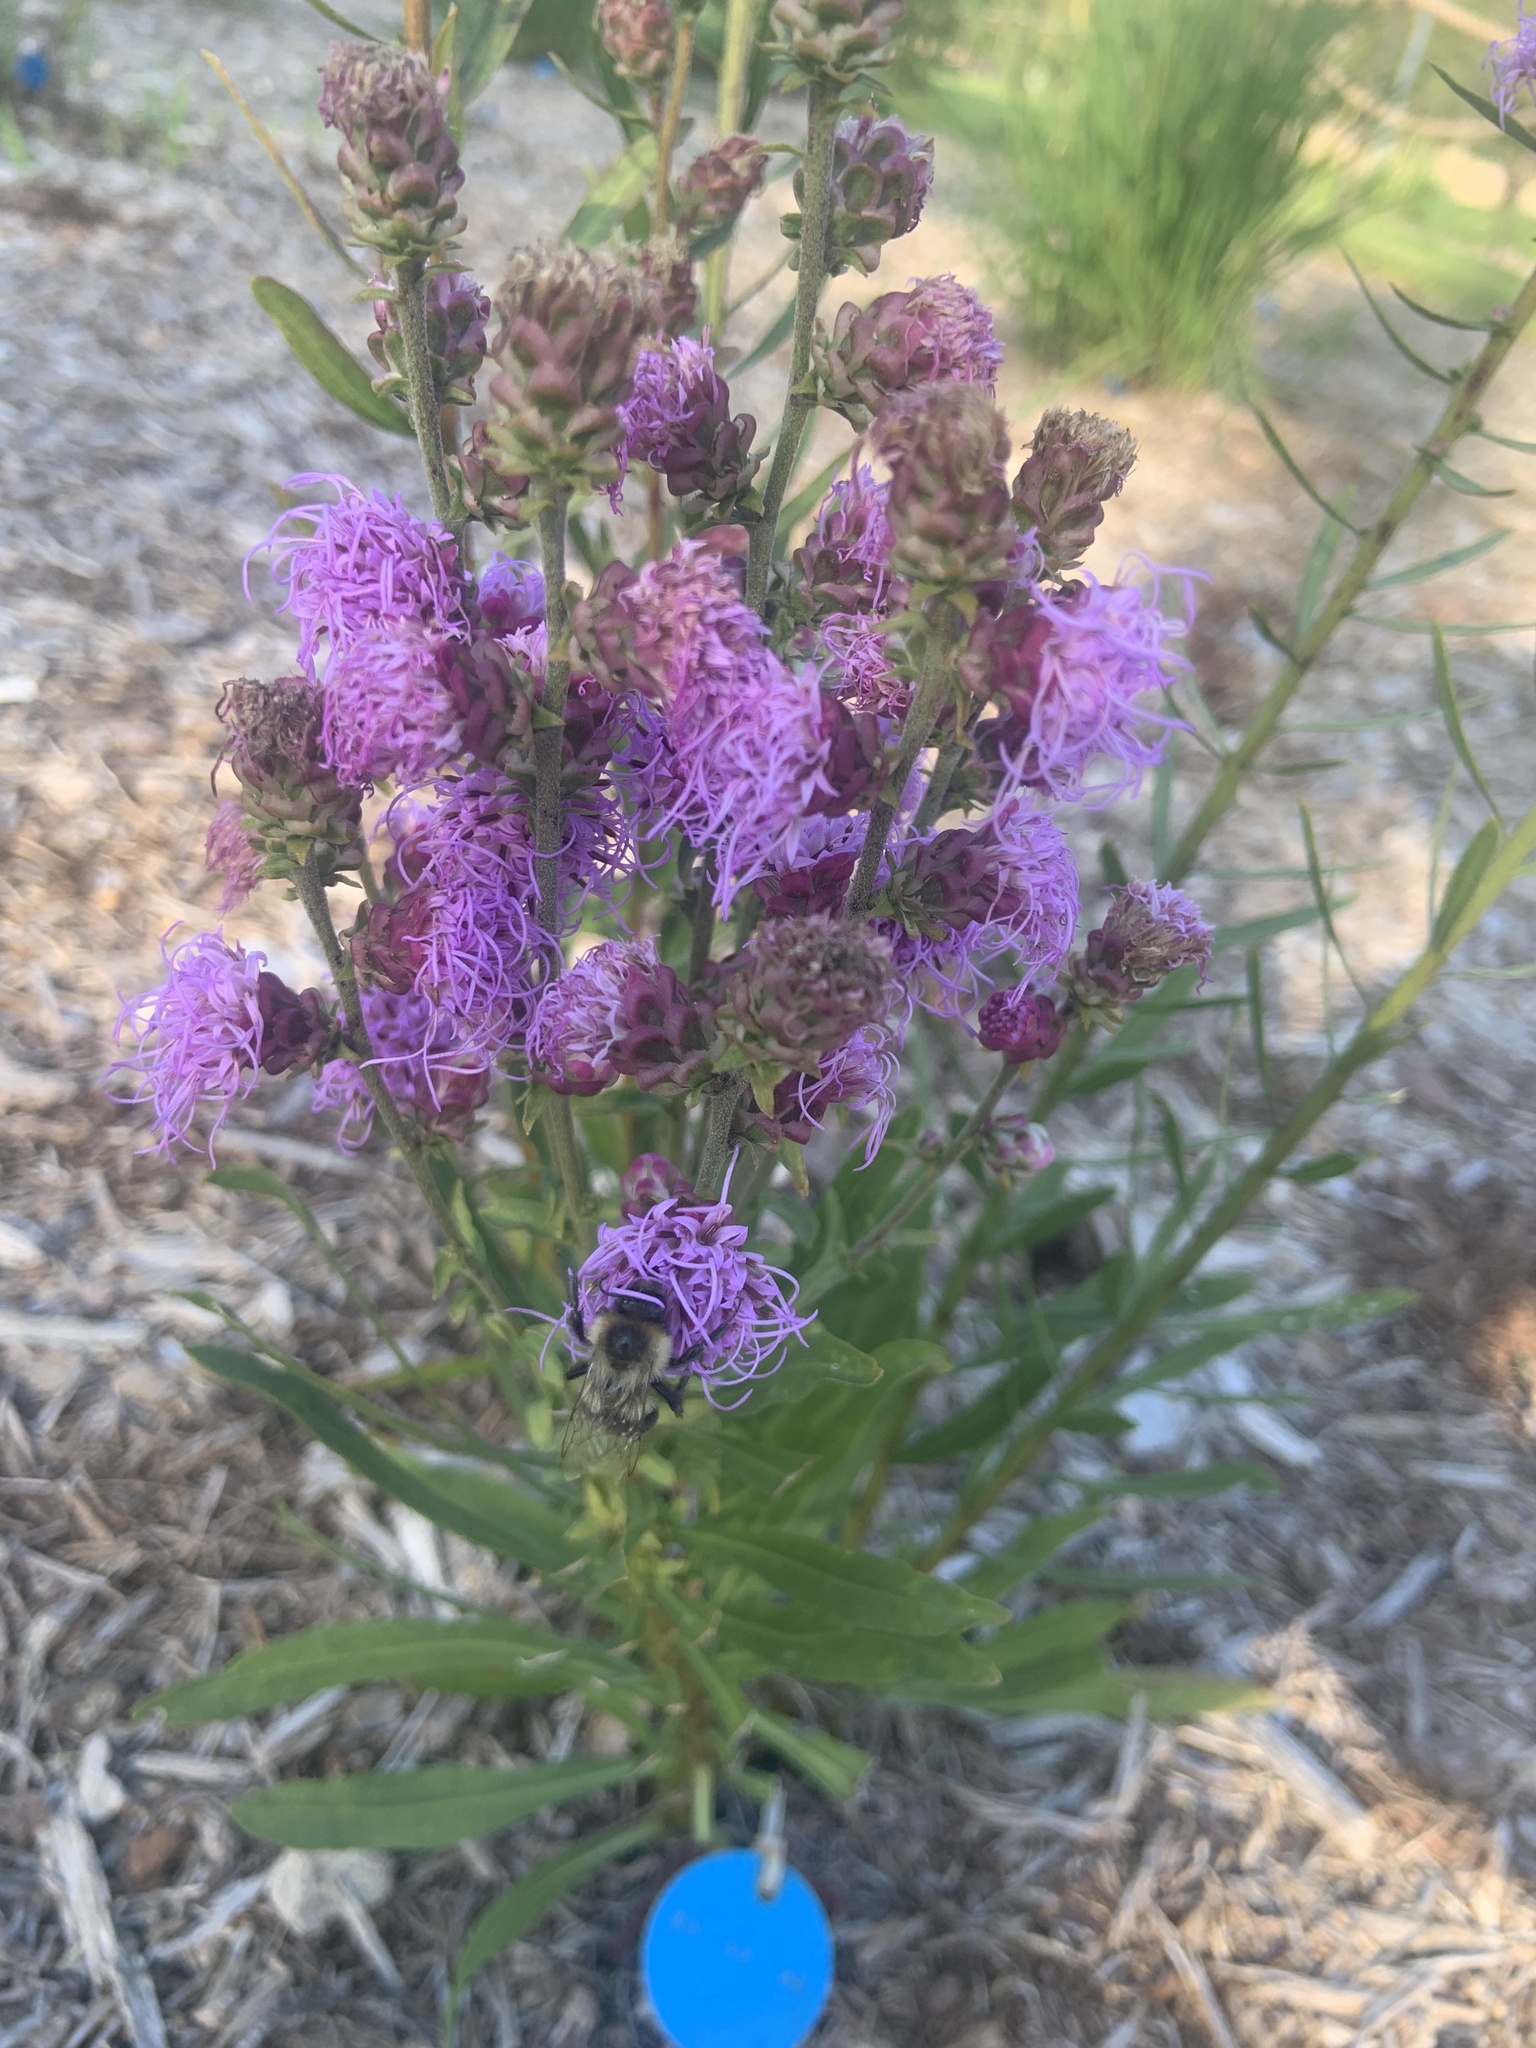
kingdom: Animalia
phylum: Arthropoda
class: Insecta
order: Hymenoptera
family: Apidae
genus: Bombus
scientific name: Bombus impatiens
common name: Common eastern bumble bee
